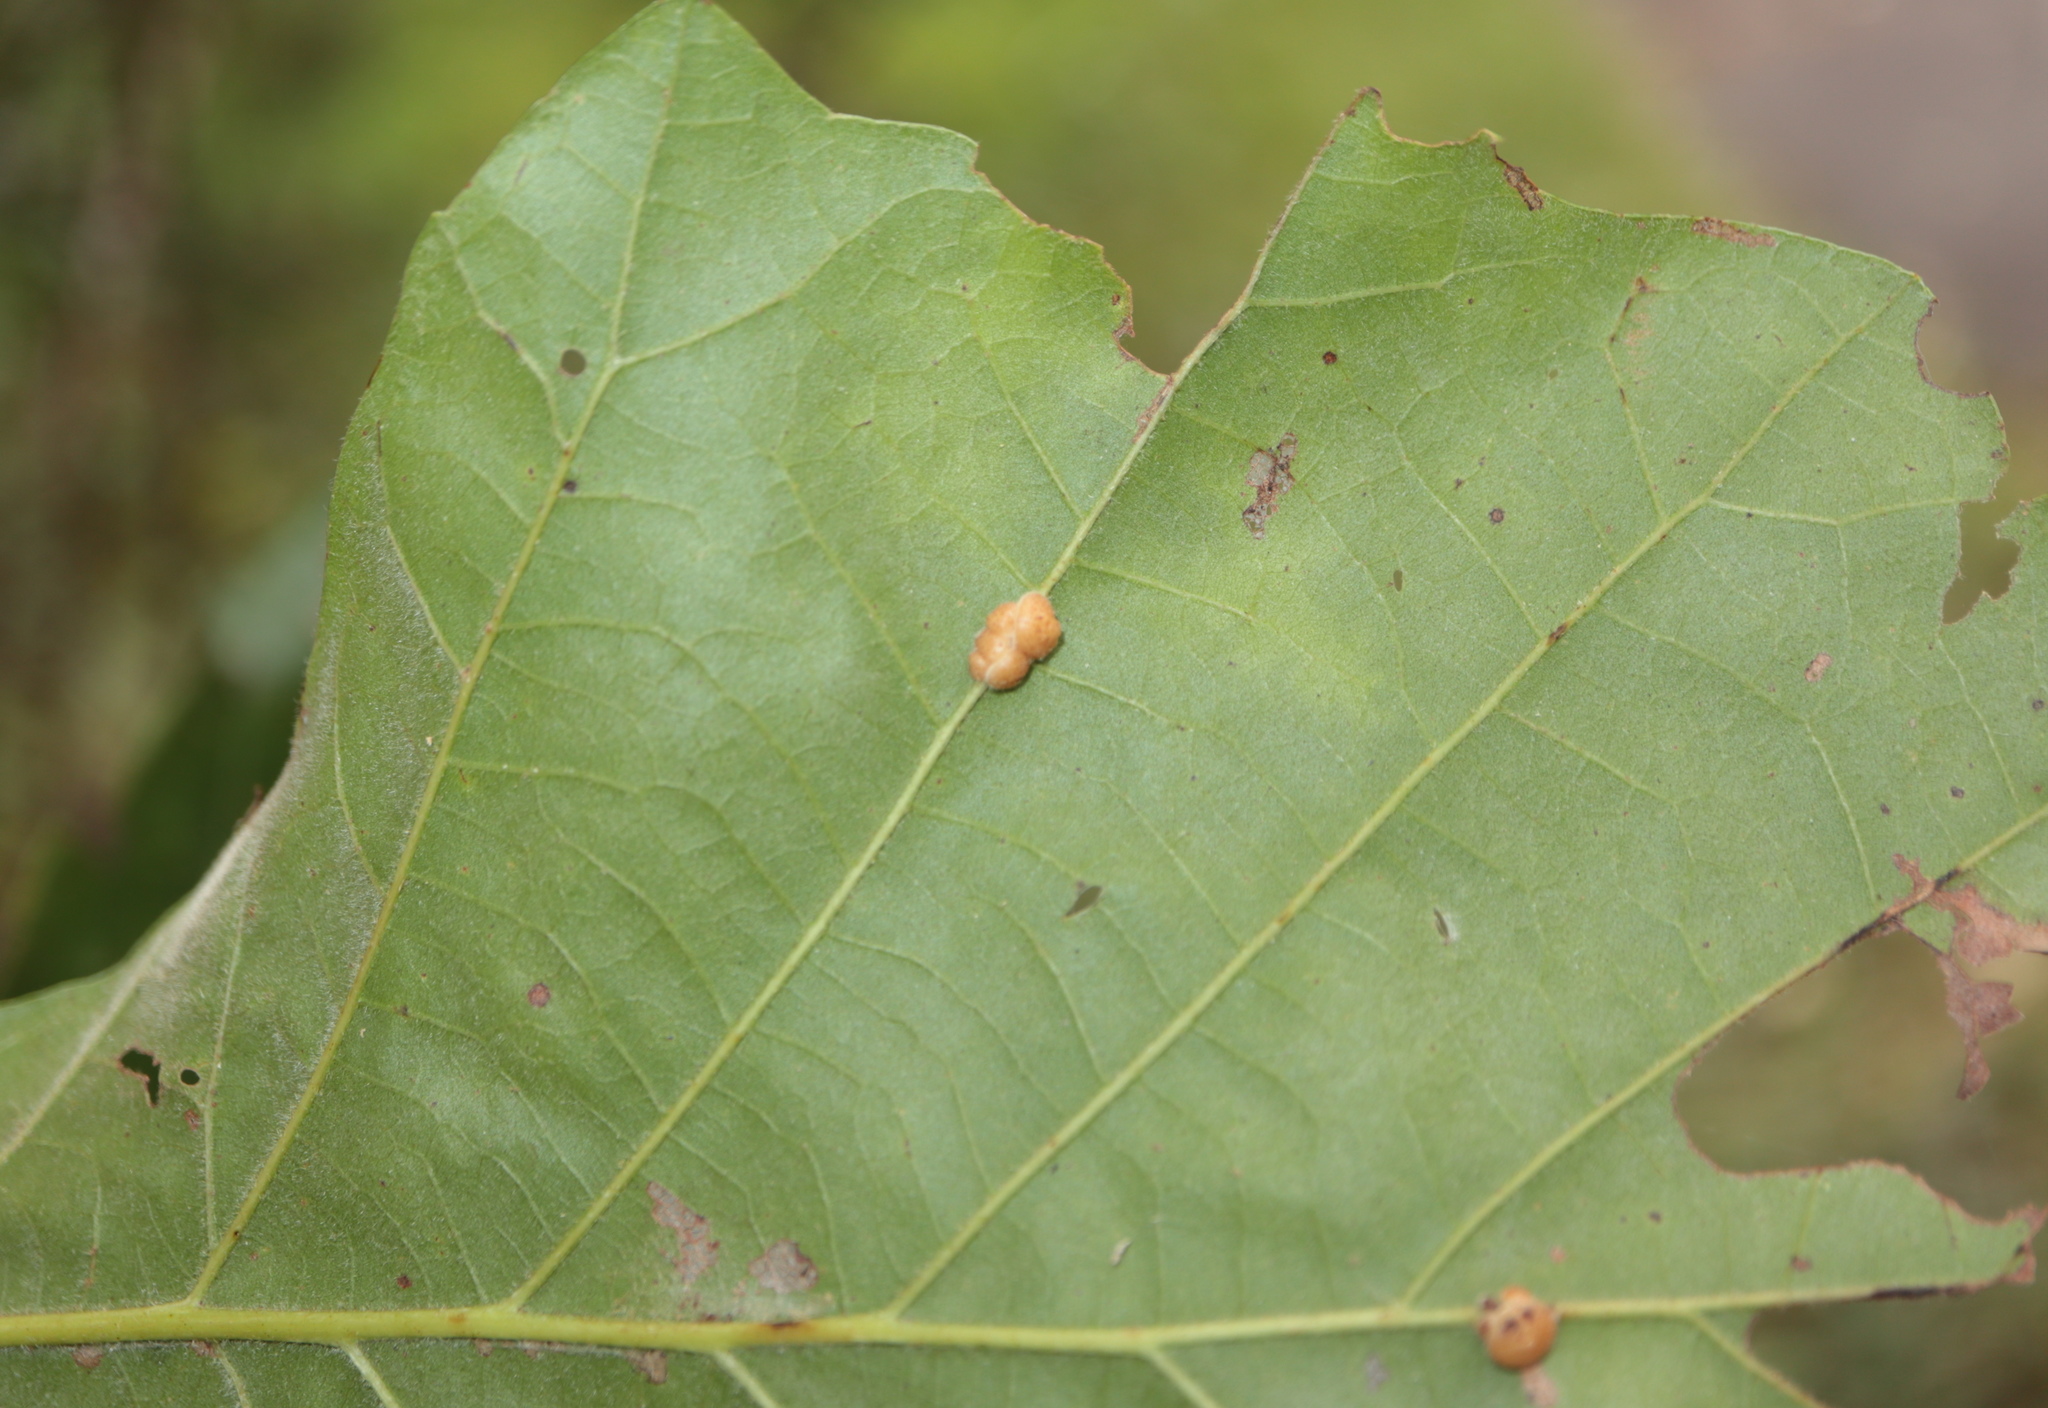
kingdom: Animalia
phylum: Arthropoda
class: Insecta
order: Hymenoptera
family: Cynipidae
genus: Andricus
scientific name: Andricus
